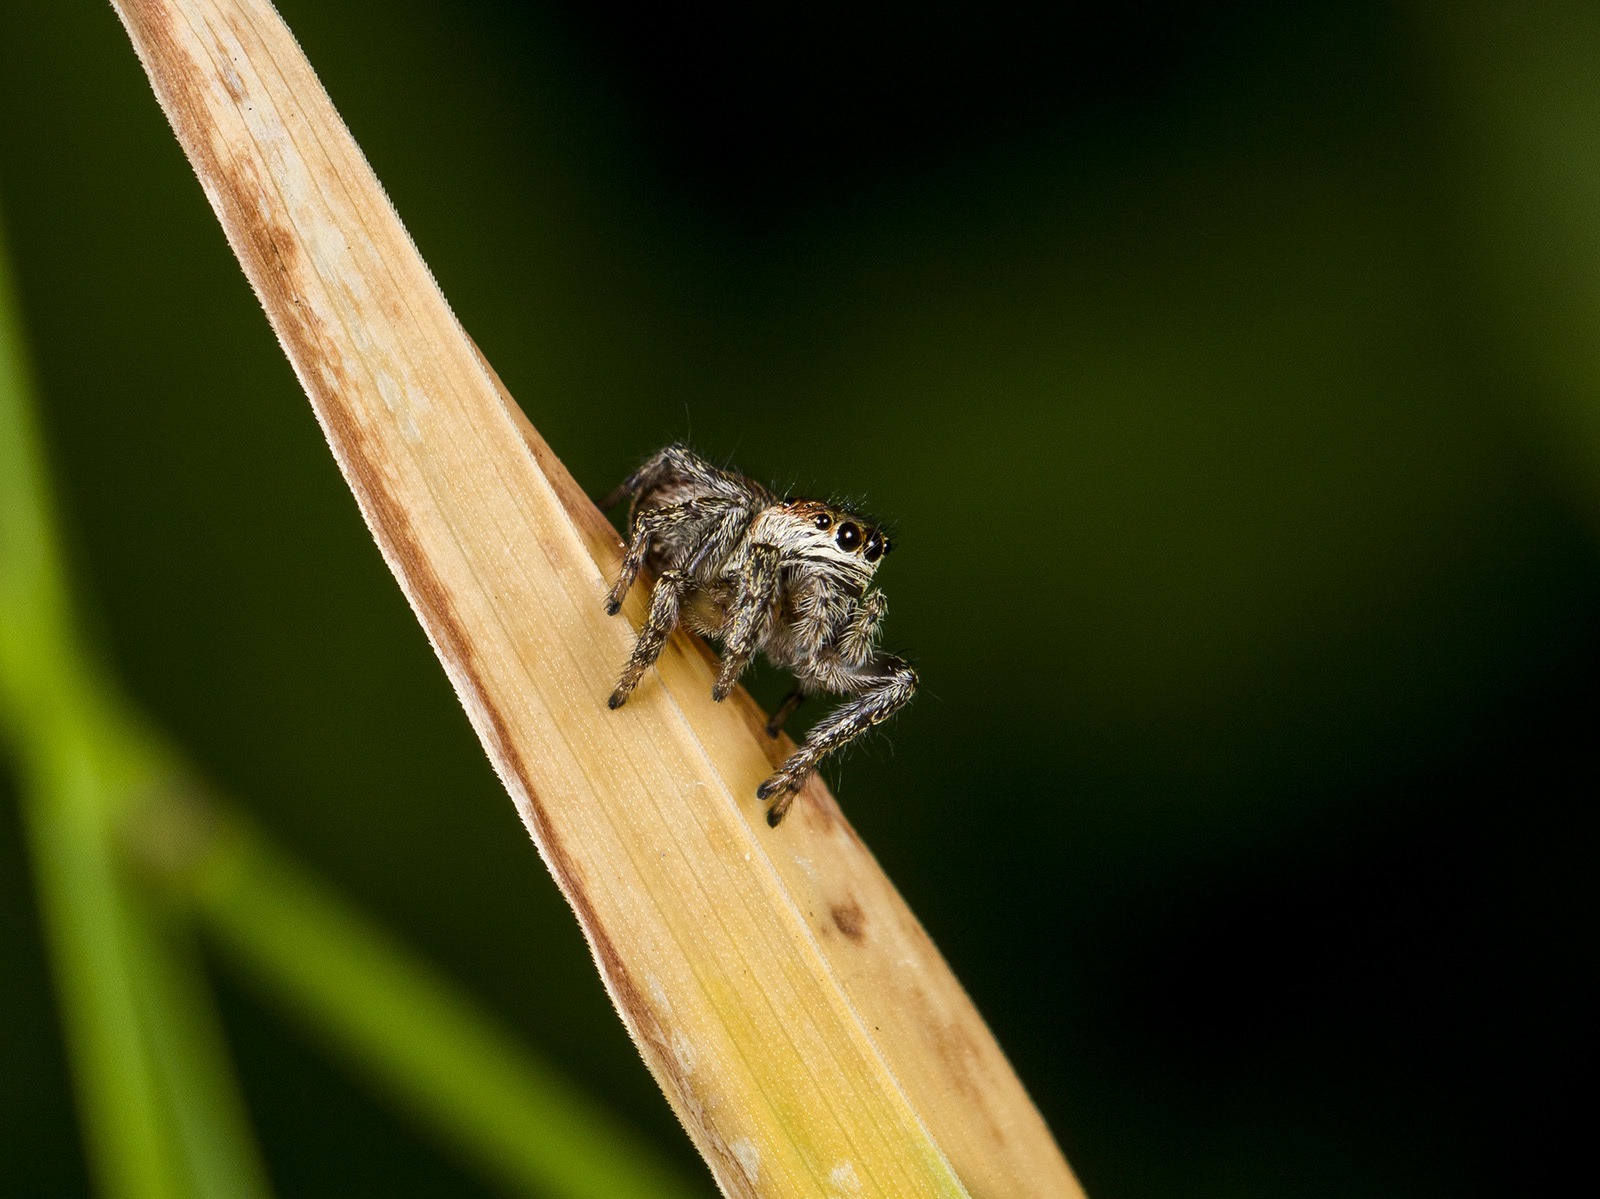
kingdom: Animalia
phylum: Arthropoda
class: Arachnida
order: Araneae
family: Salticidae
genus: Evarcha
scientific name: Evarcha arcuata
